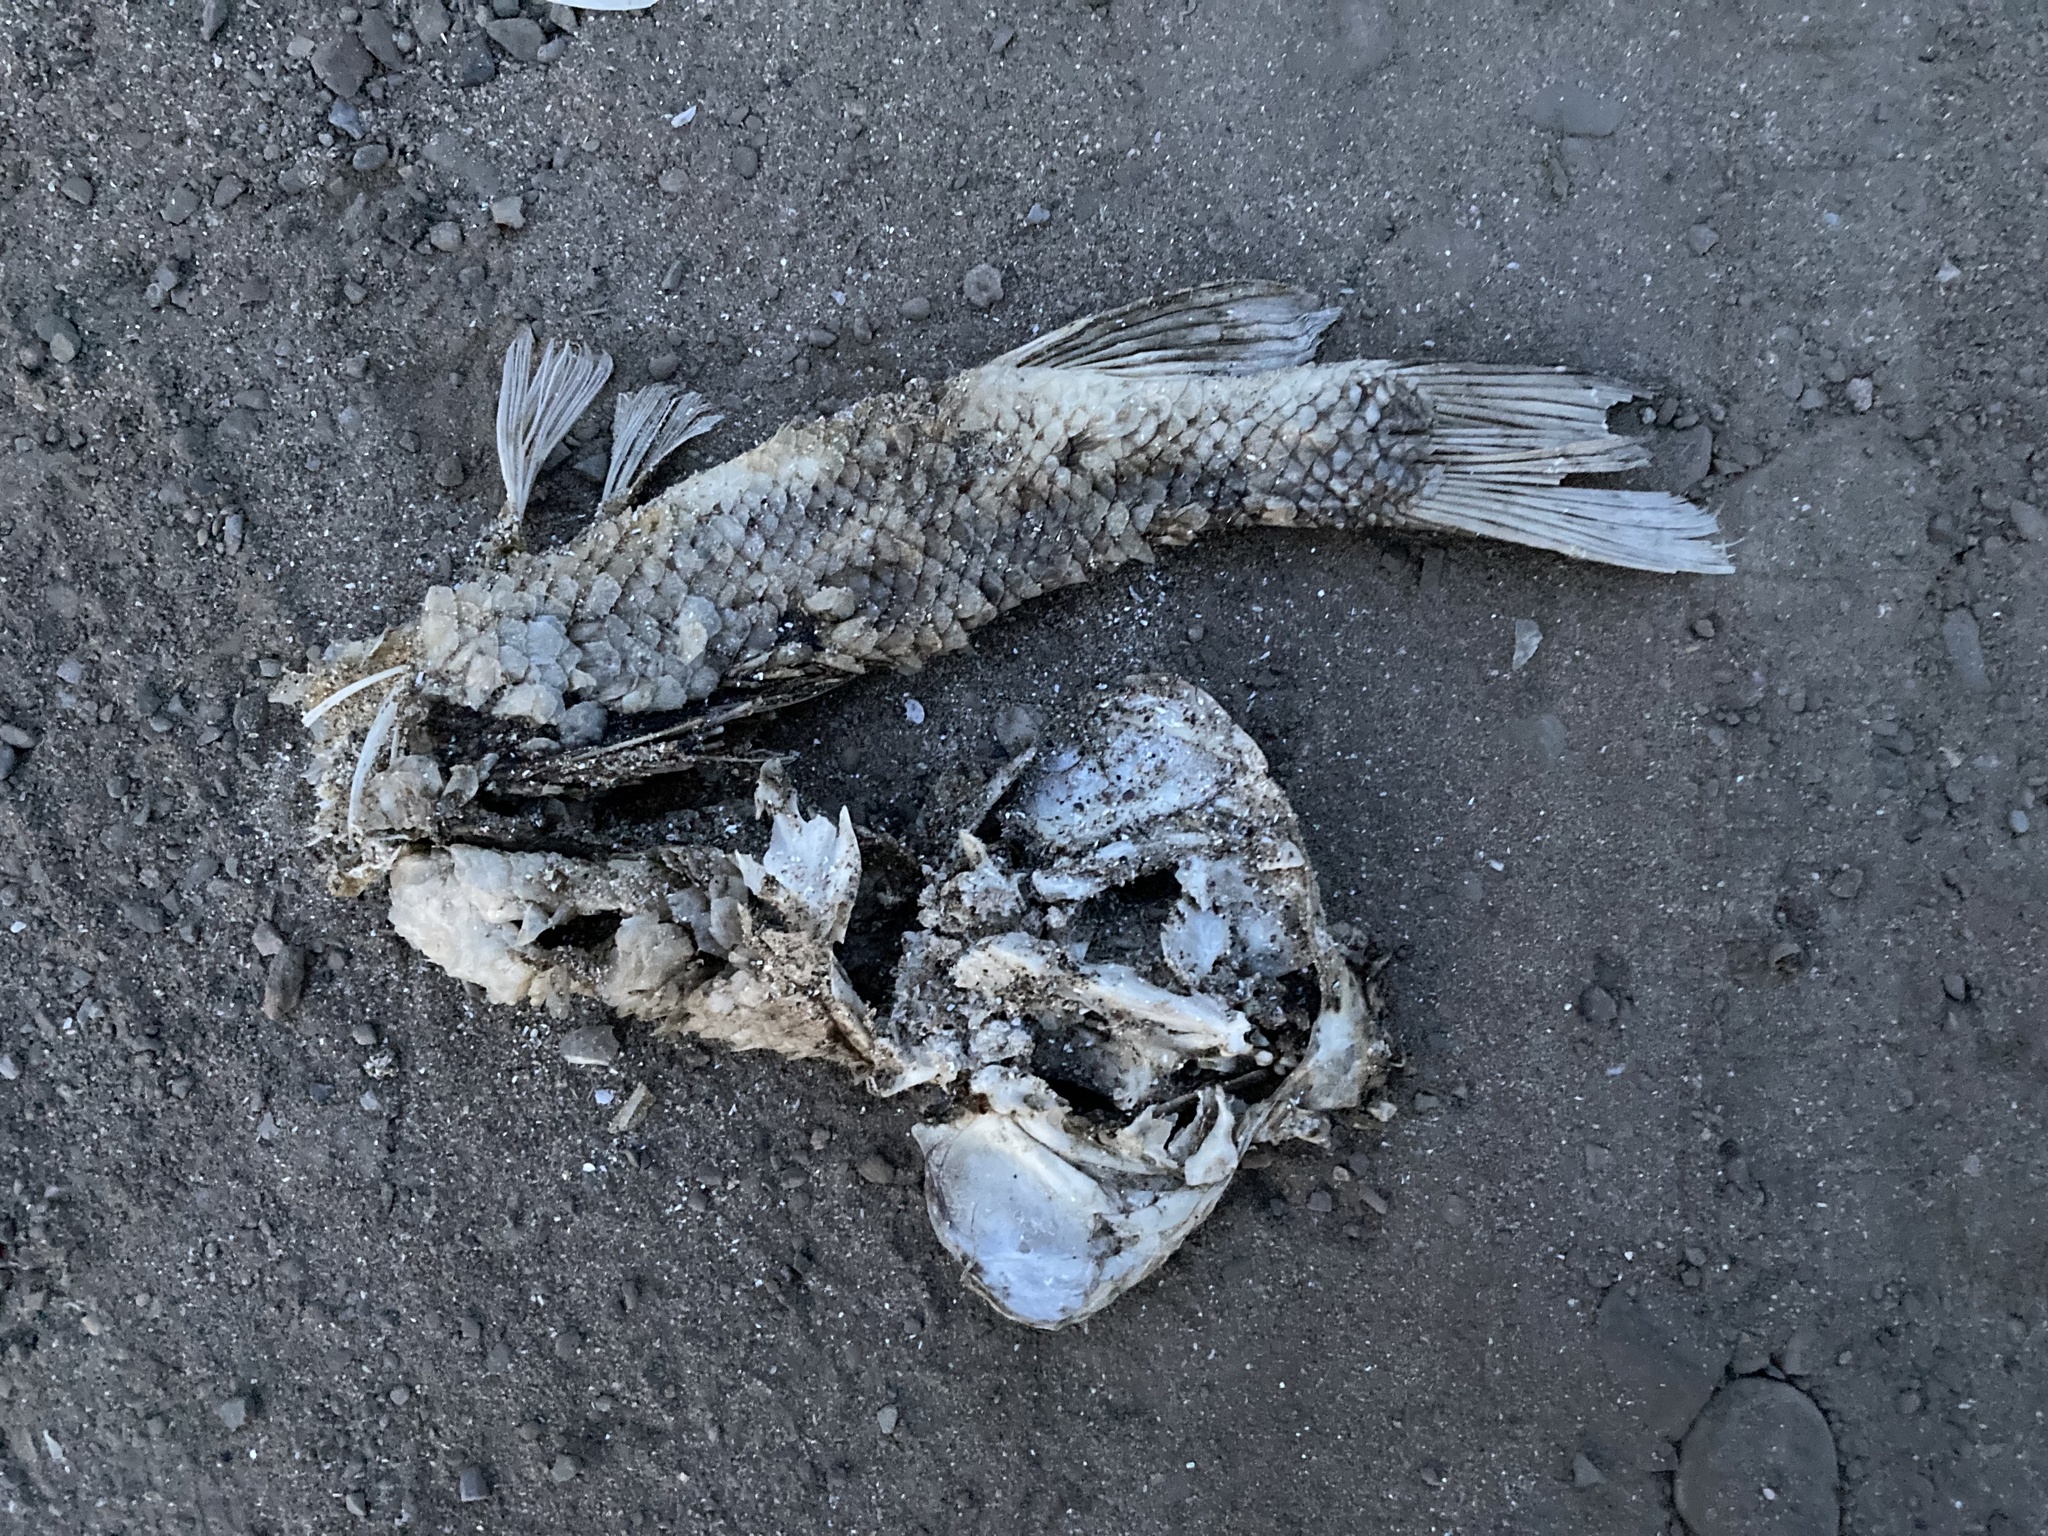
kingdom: Animalia
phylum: Chordata
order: Cypriniformes
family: Catostomidae
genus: Catostomus
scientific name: Catostomus commersonii
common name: White sucker
